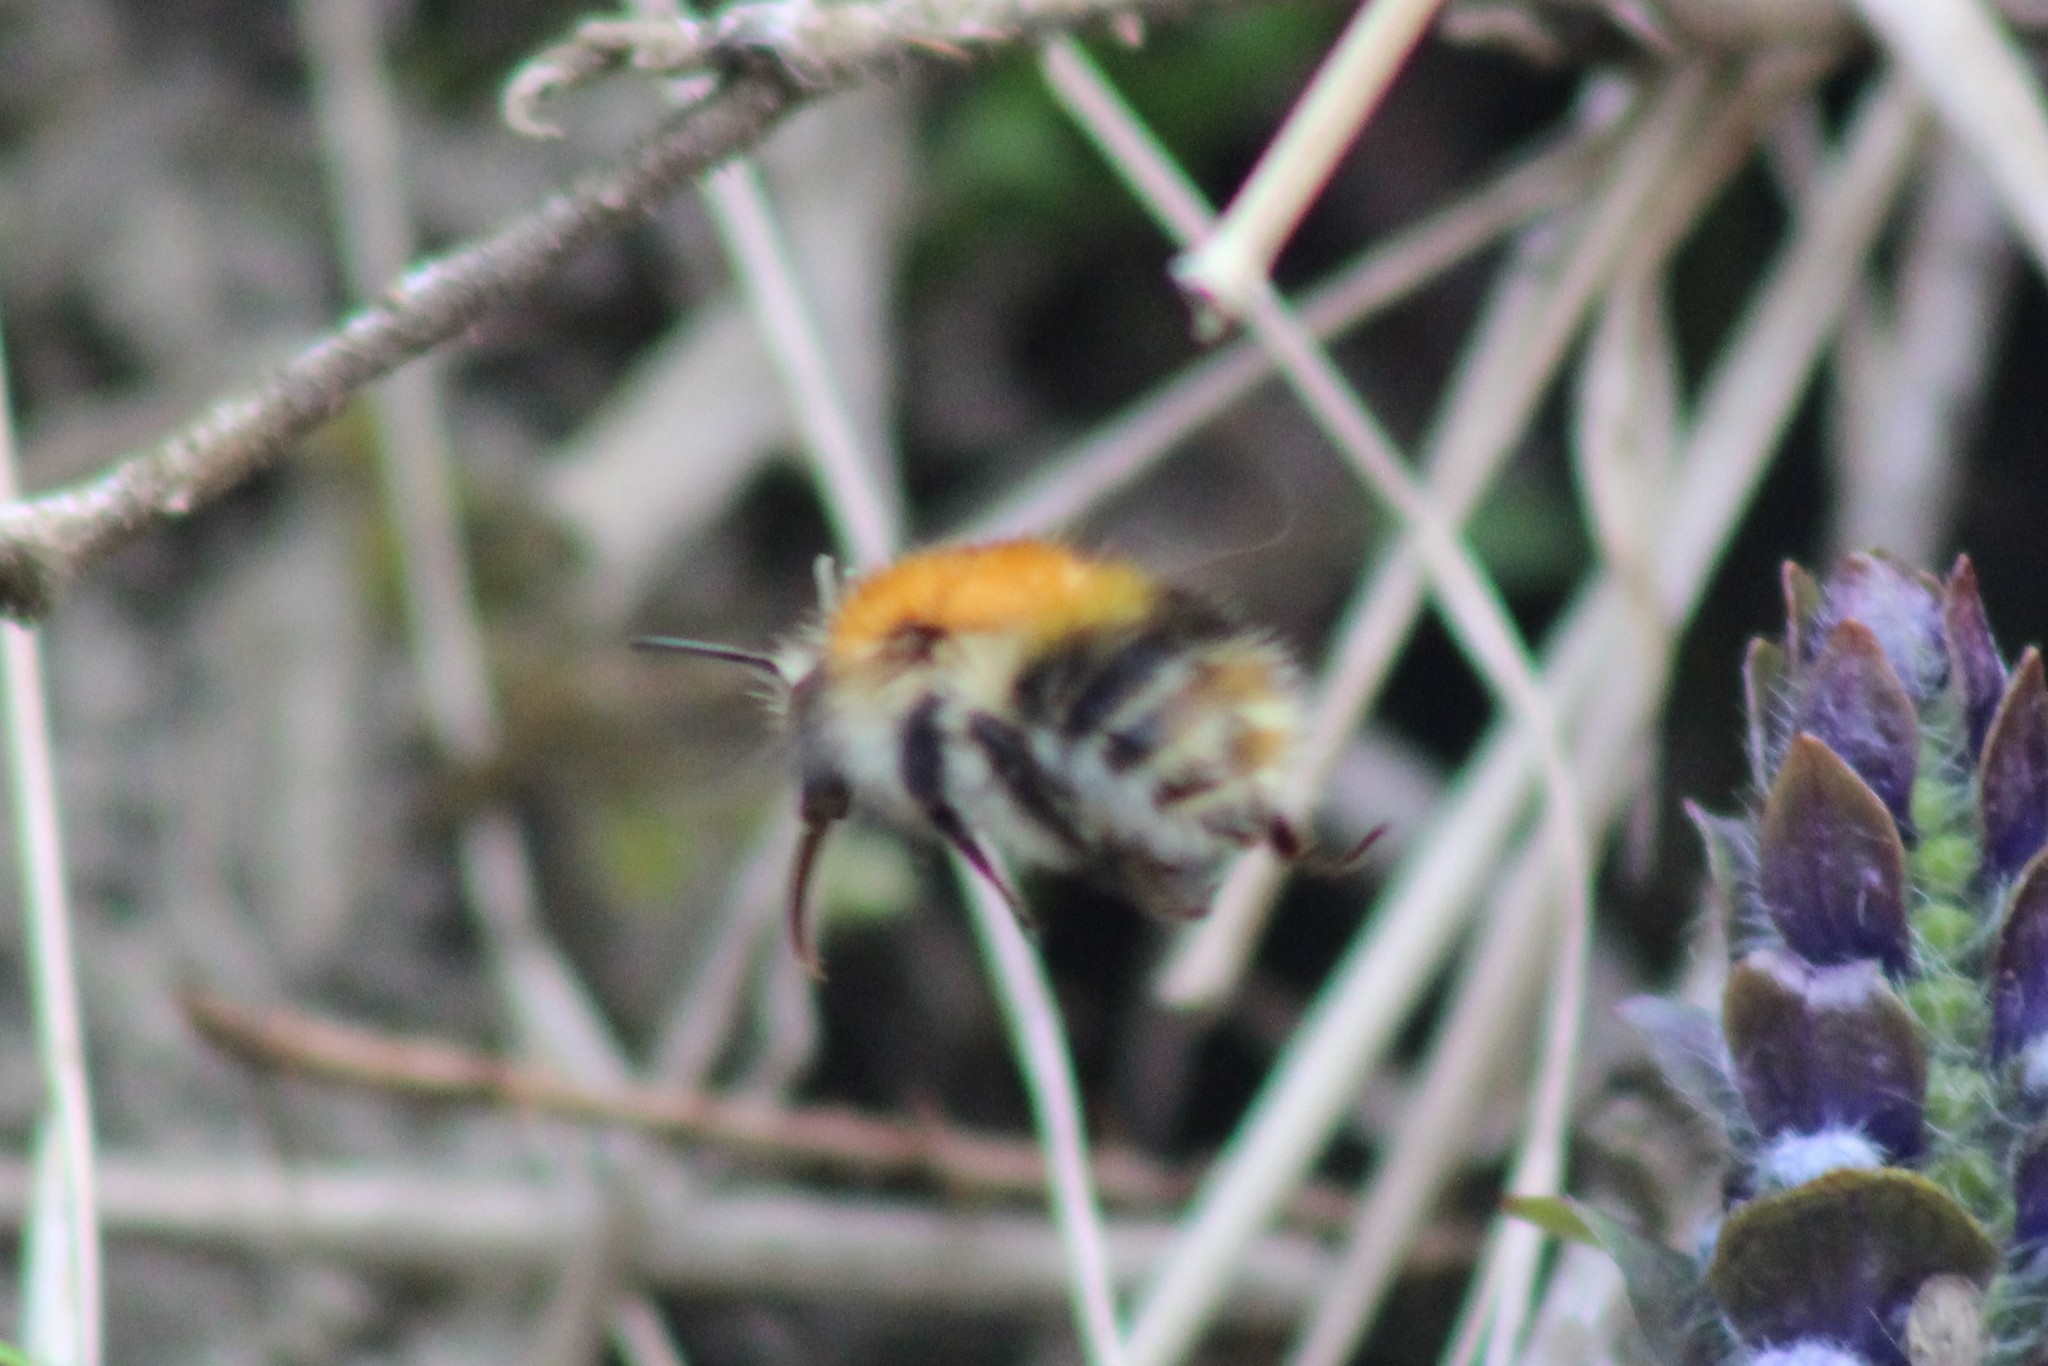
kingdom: Animalia
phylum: Arthropoda
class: Insecta
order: Hymenoptera
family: Apidae
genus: Bombus
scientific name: Bombus pascuorum
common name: Common carder bee
